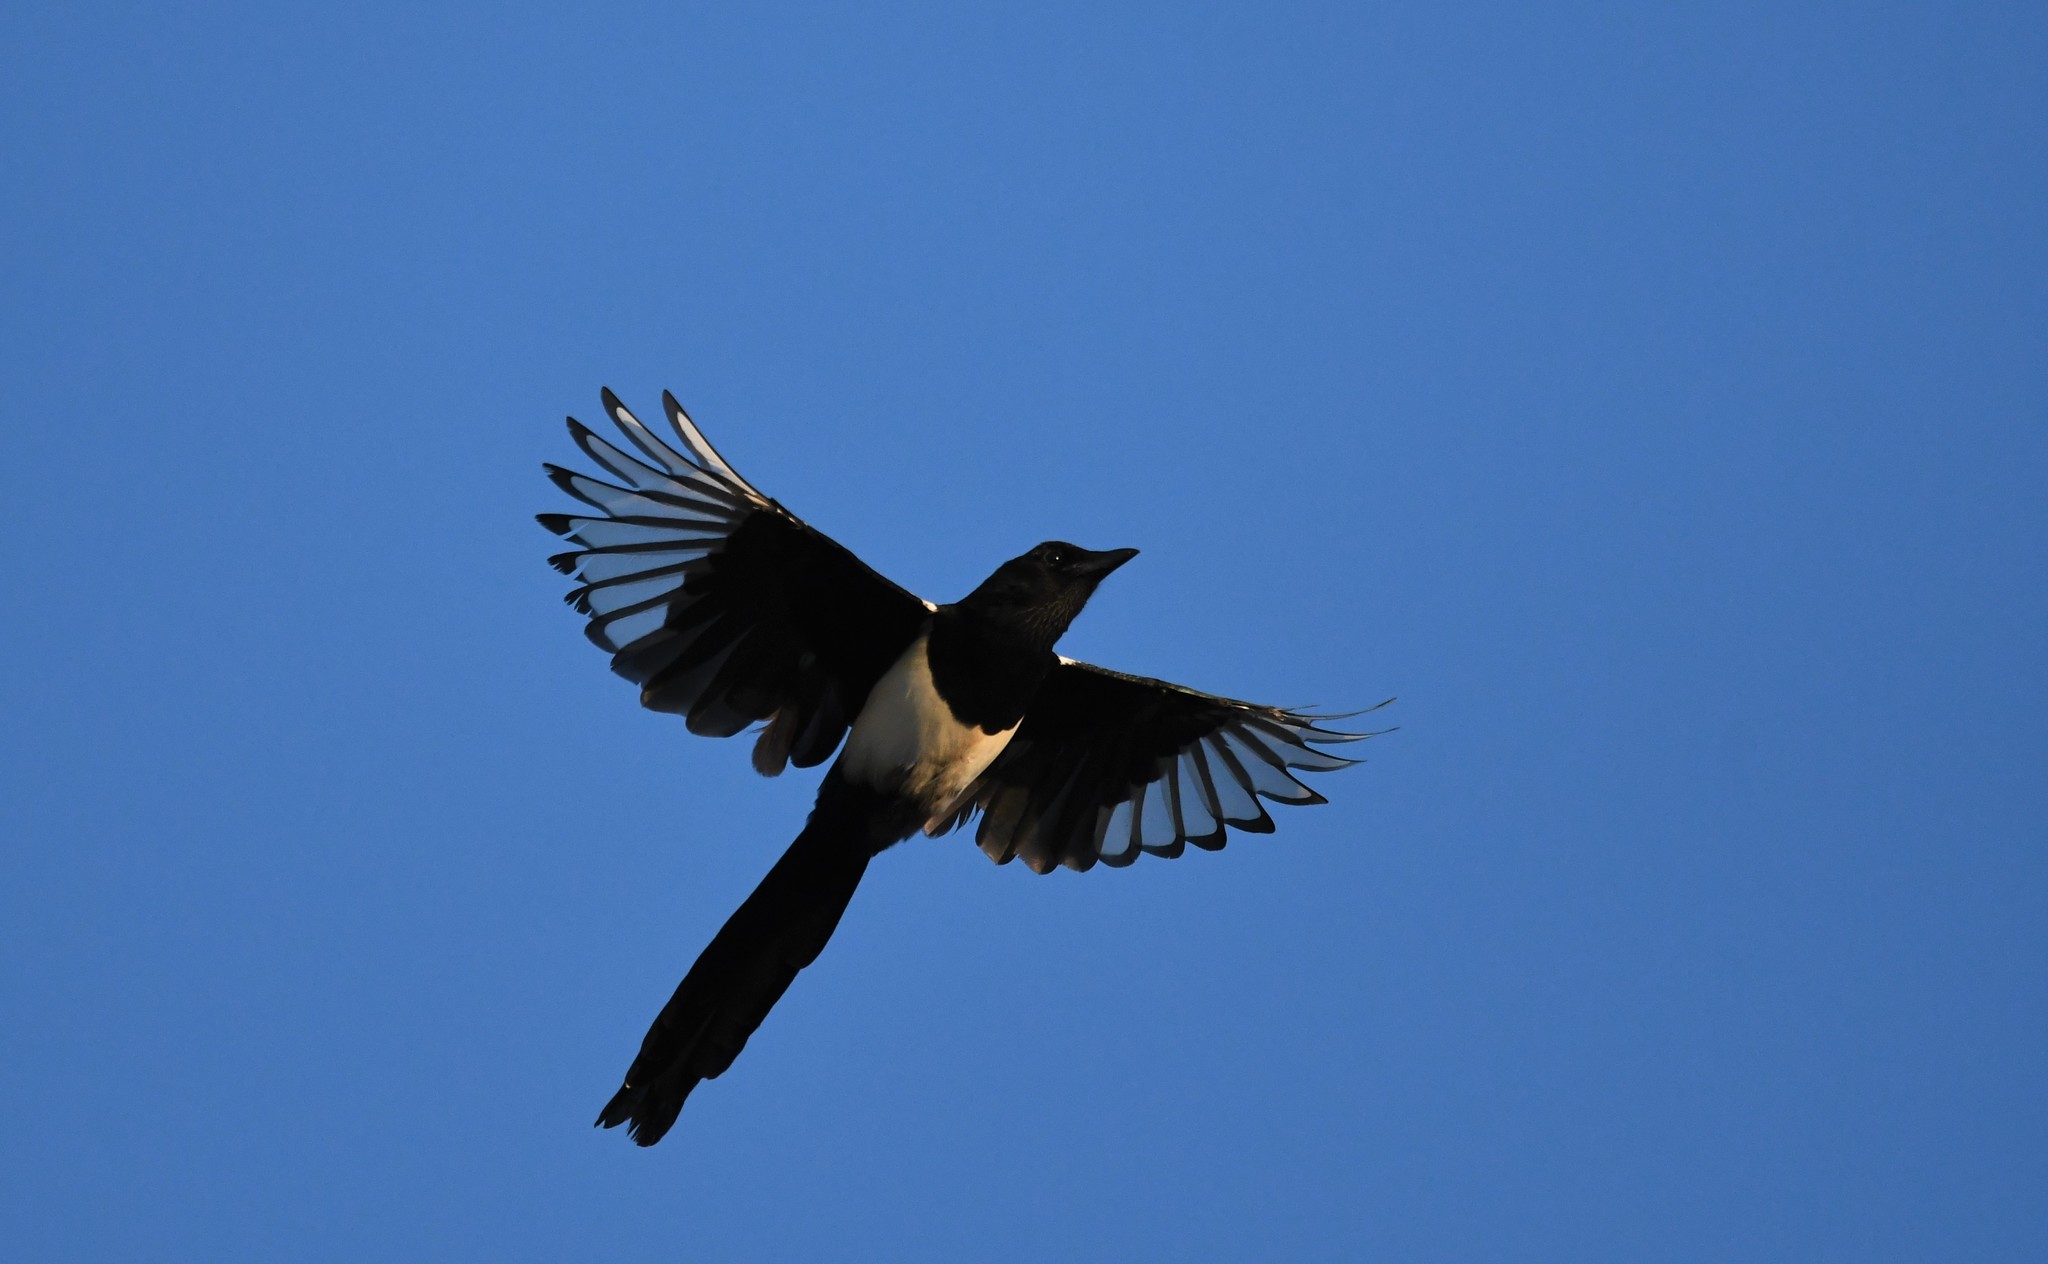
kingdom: Animalia
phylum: Chordata
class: Aves
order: Passeriformes
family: Corvidae
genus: Pica
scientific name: Pica pica
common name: Eurasian magpie
